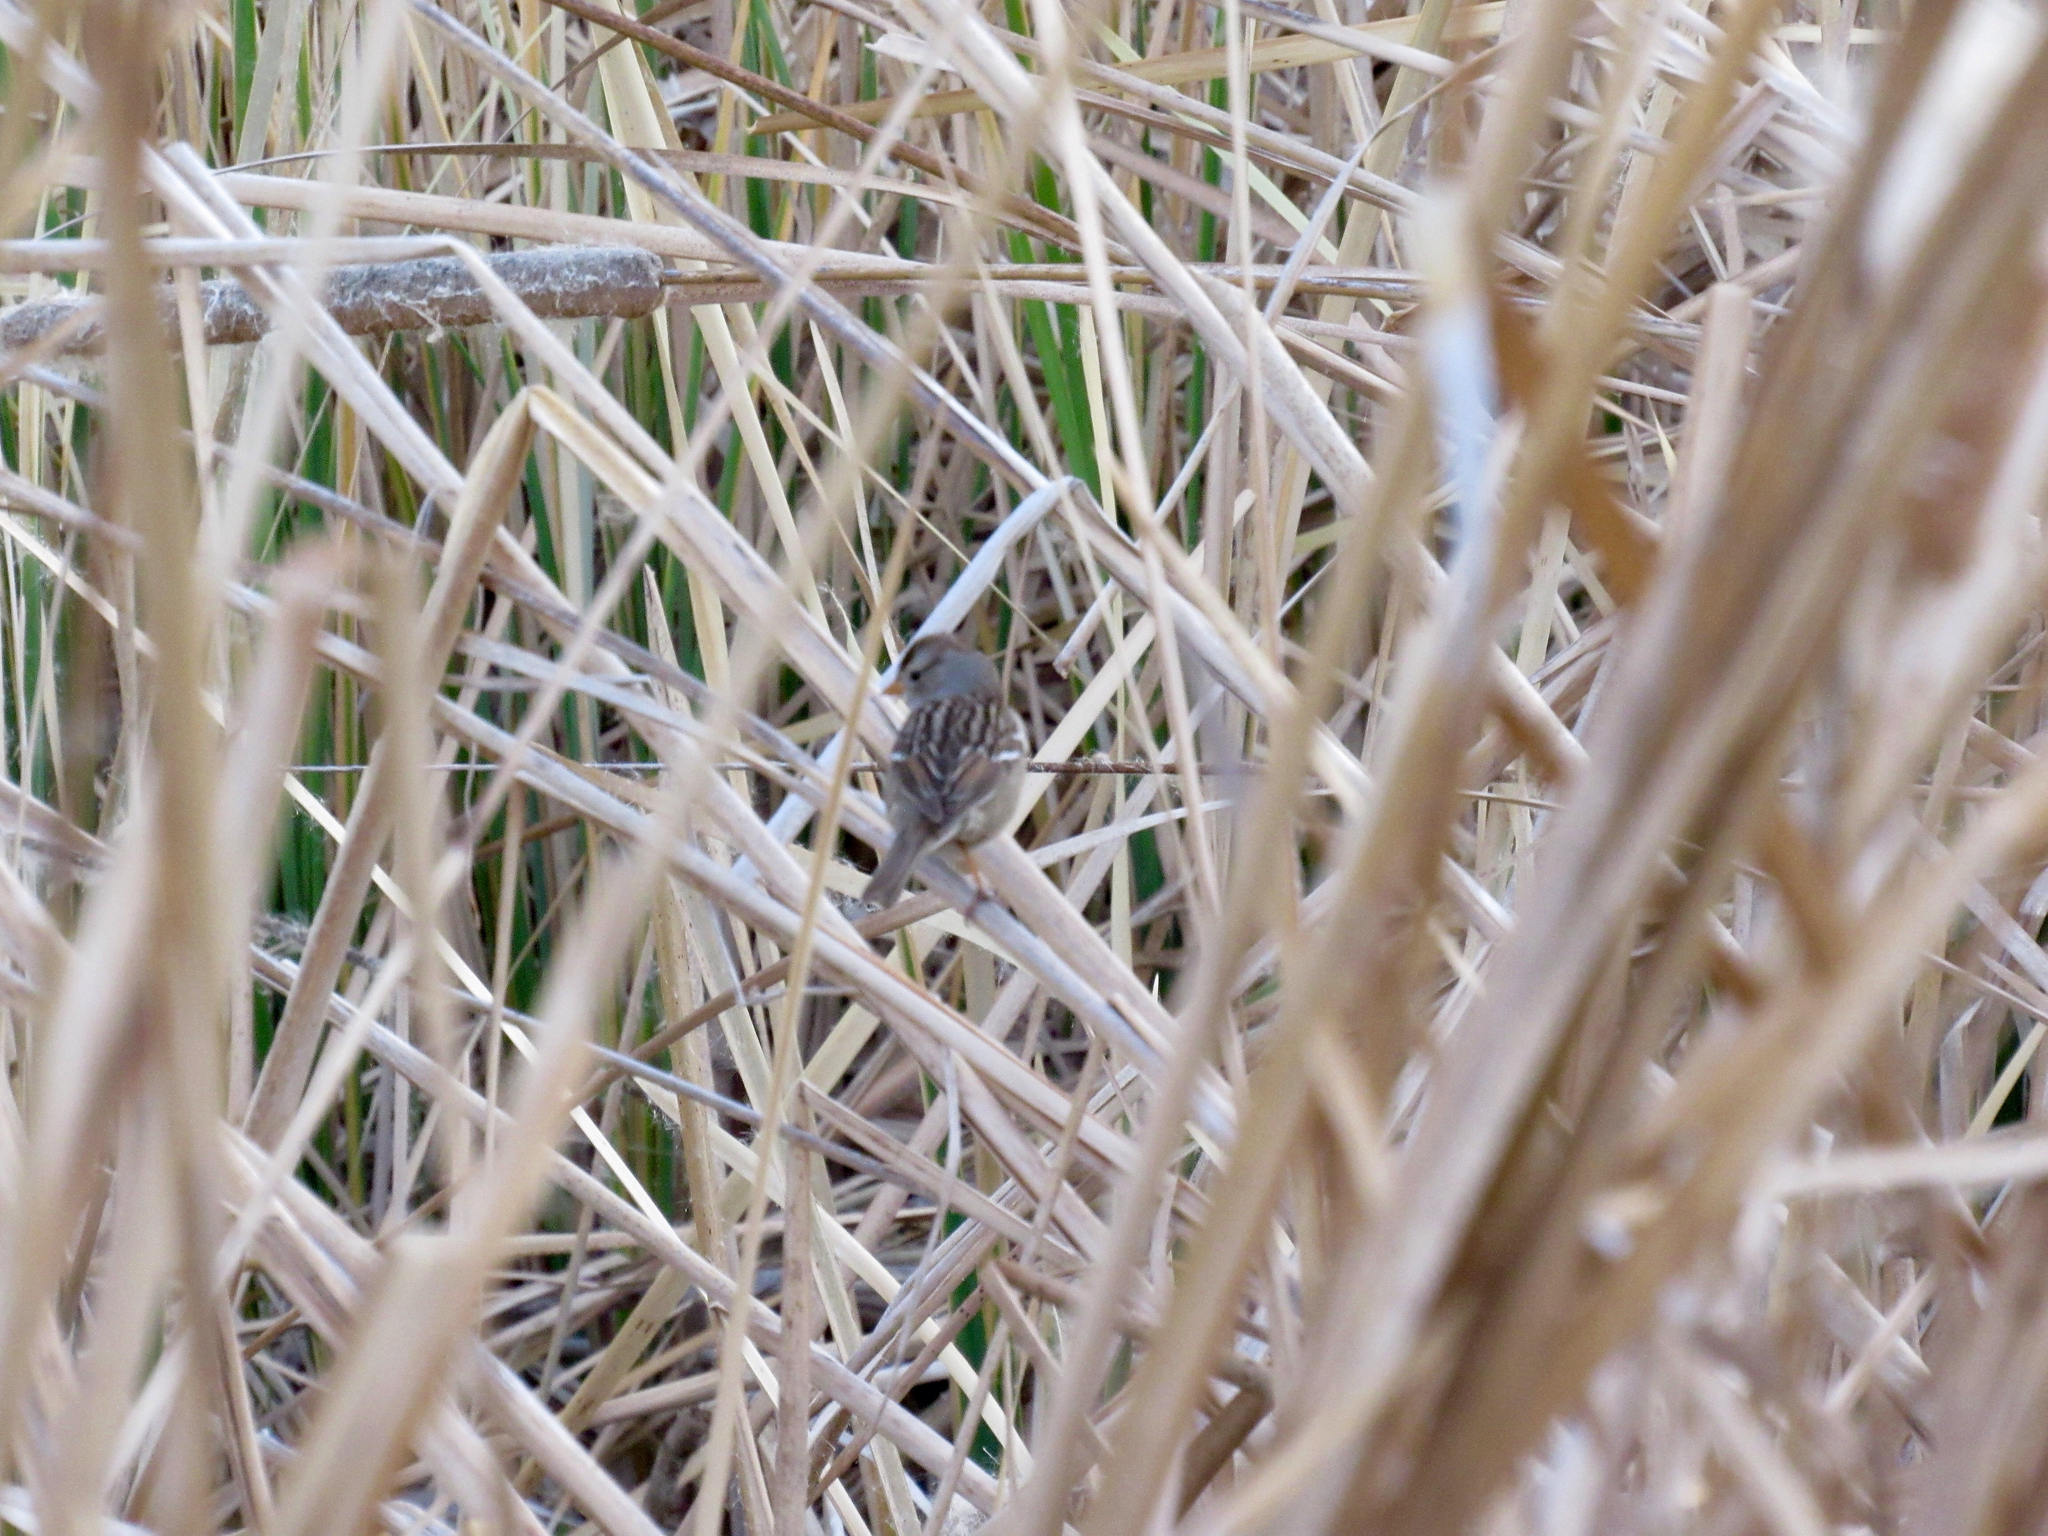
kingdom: Animalia
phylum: Chordata
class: Aves
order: Passeriformes
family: Passerellidae
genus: Zonotrichia
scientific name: Zonotrichia leucophrys
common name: White-crowned sparrow
